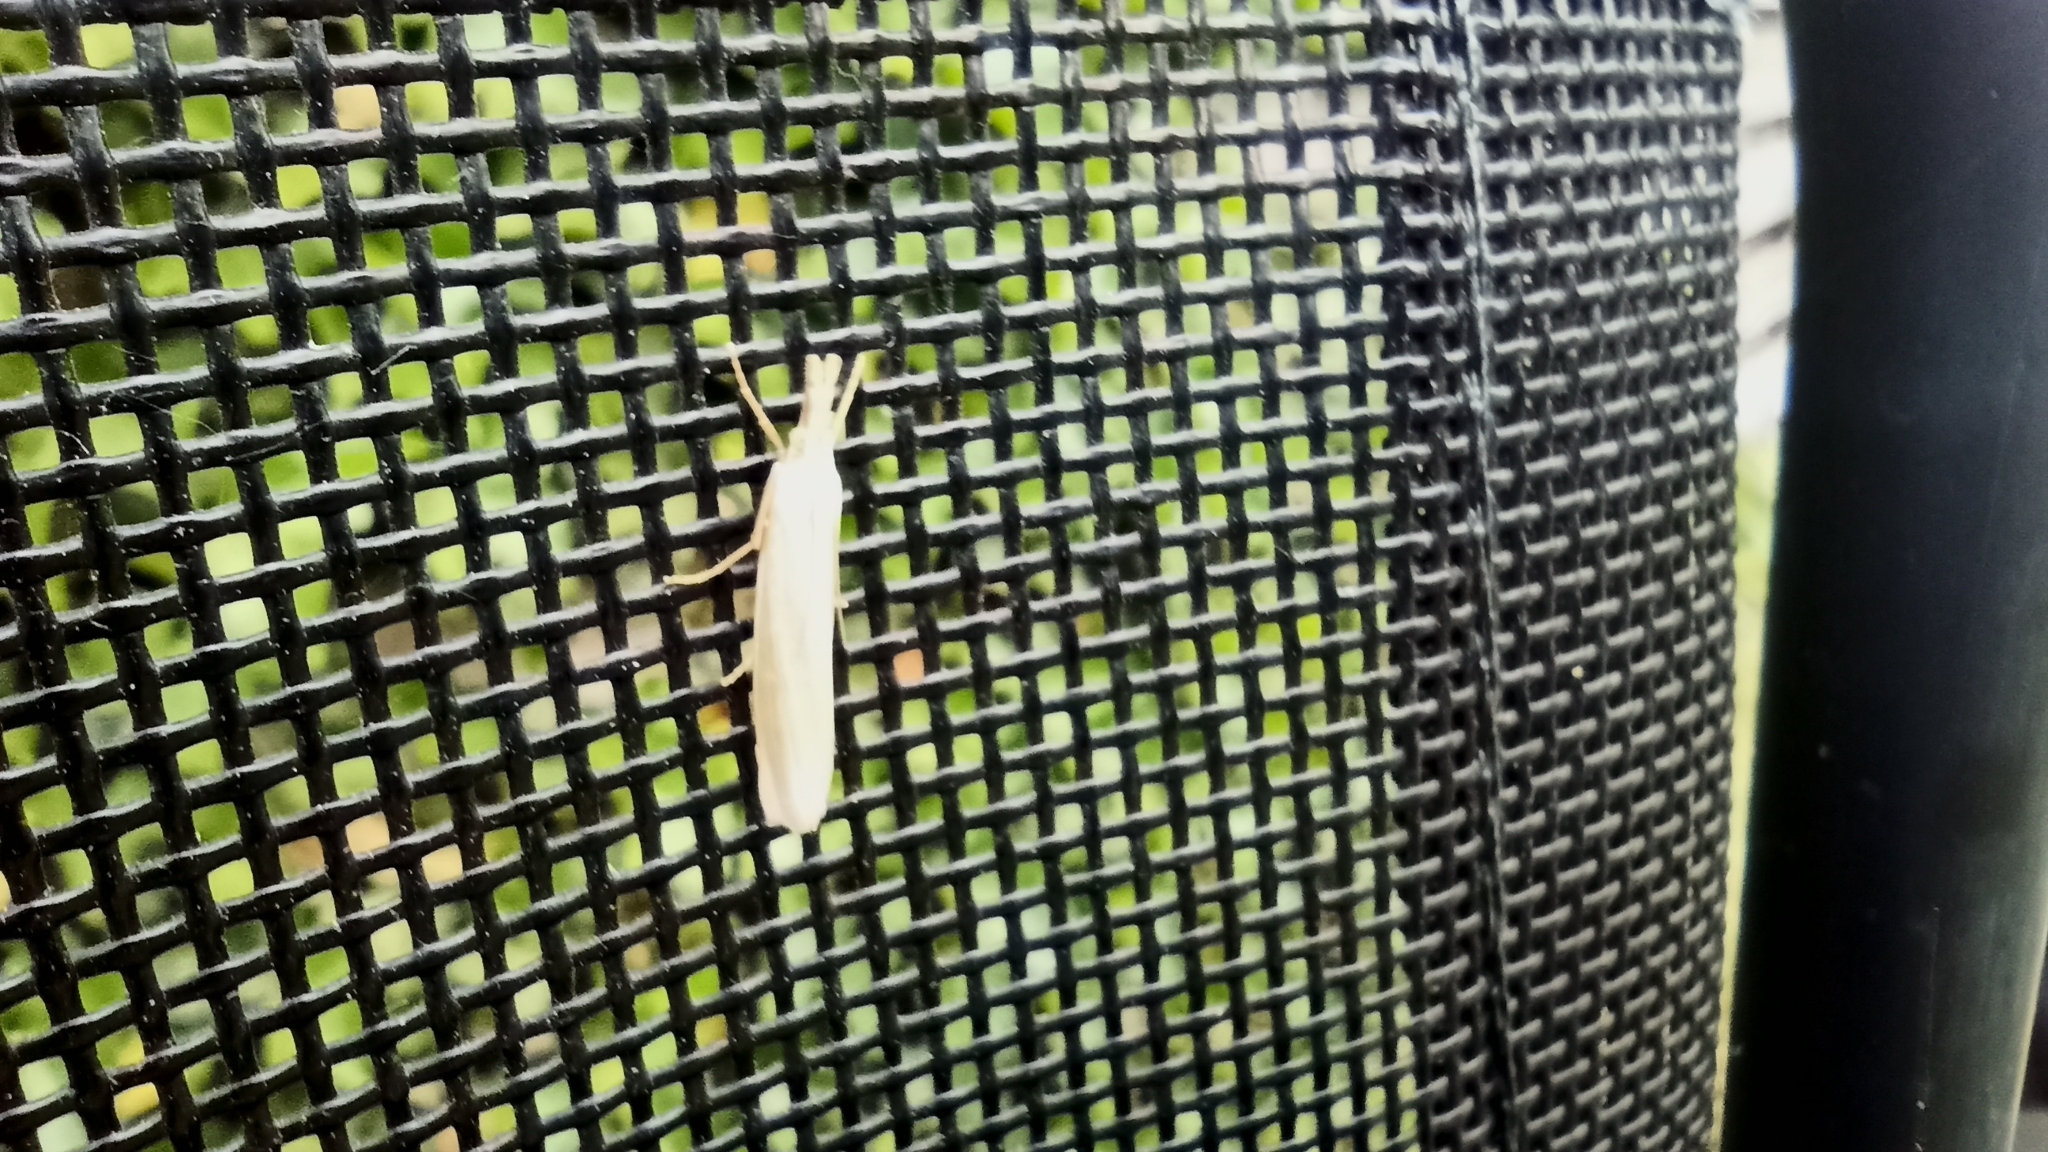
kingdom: Animalia
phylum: Arthropoda
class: Insecta
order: Lepidoptera
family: Crambidae
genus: Crambus
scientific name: Crambus perlellus
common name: Yellow satin veneer
